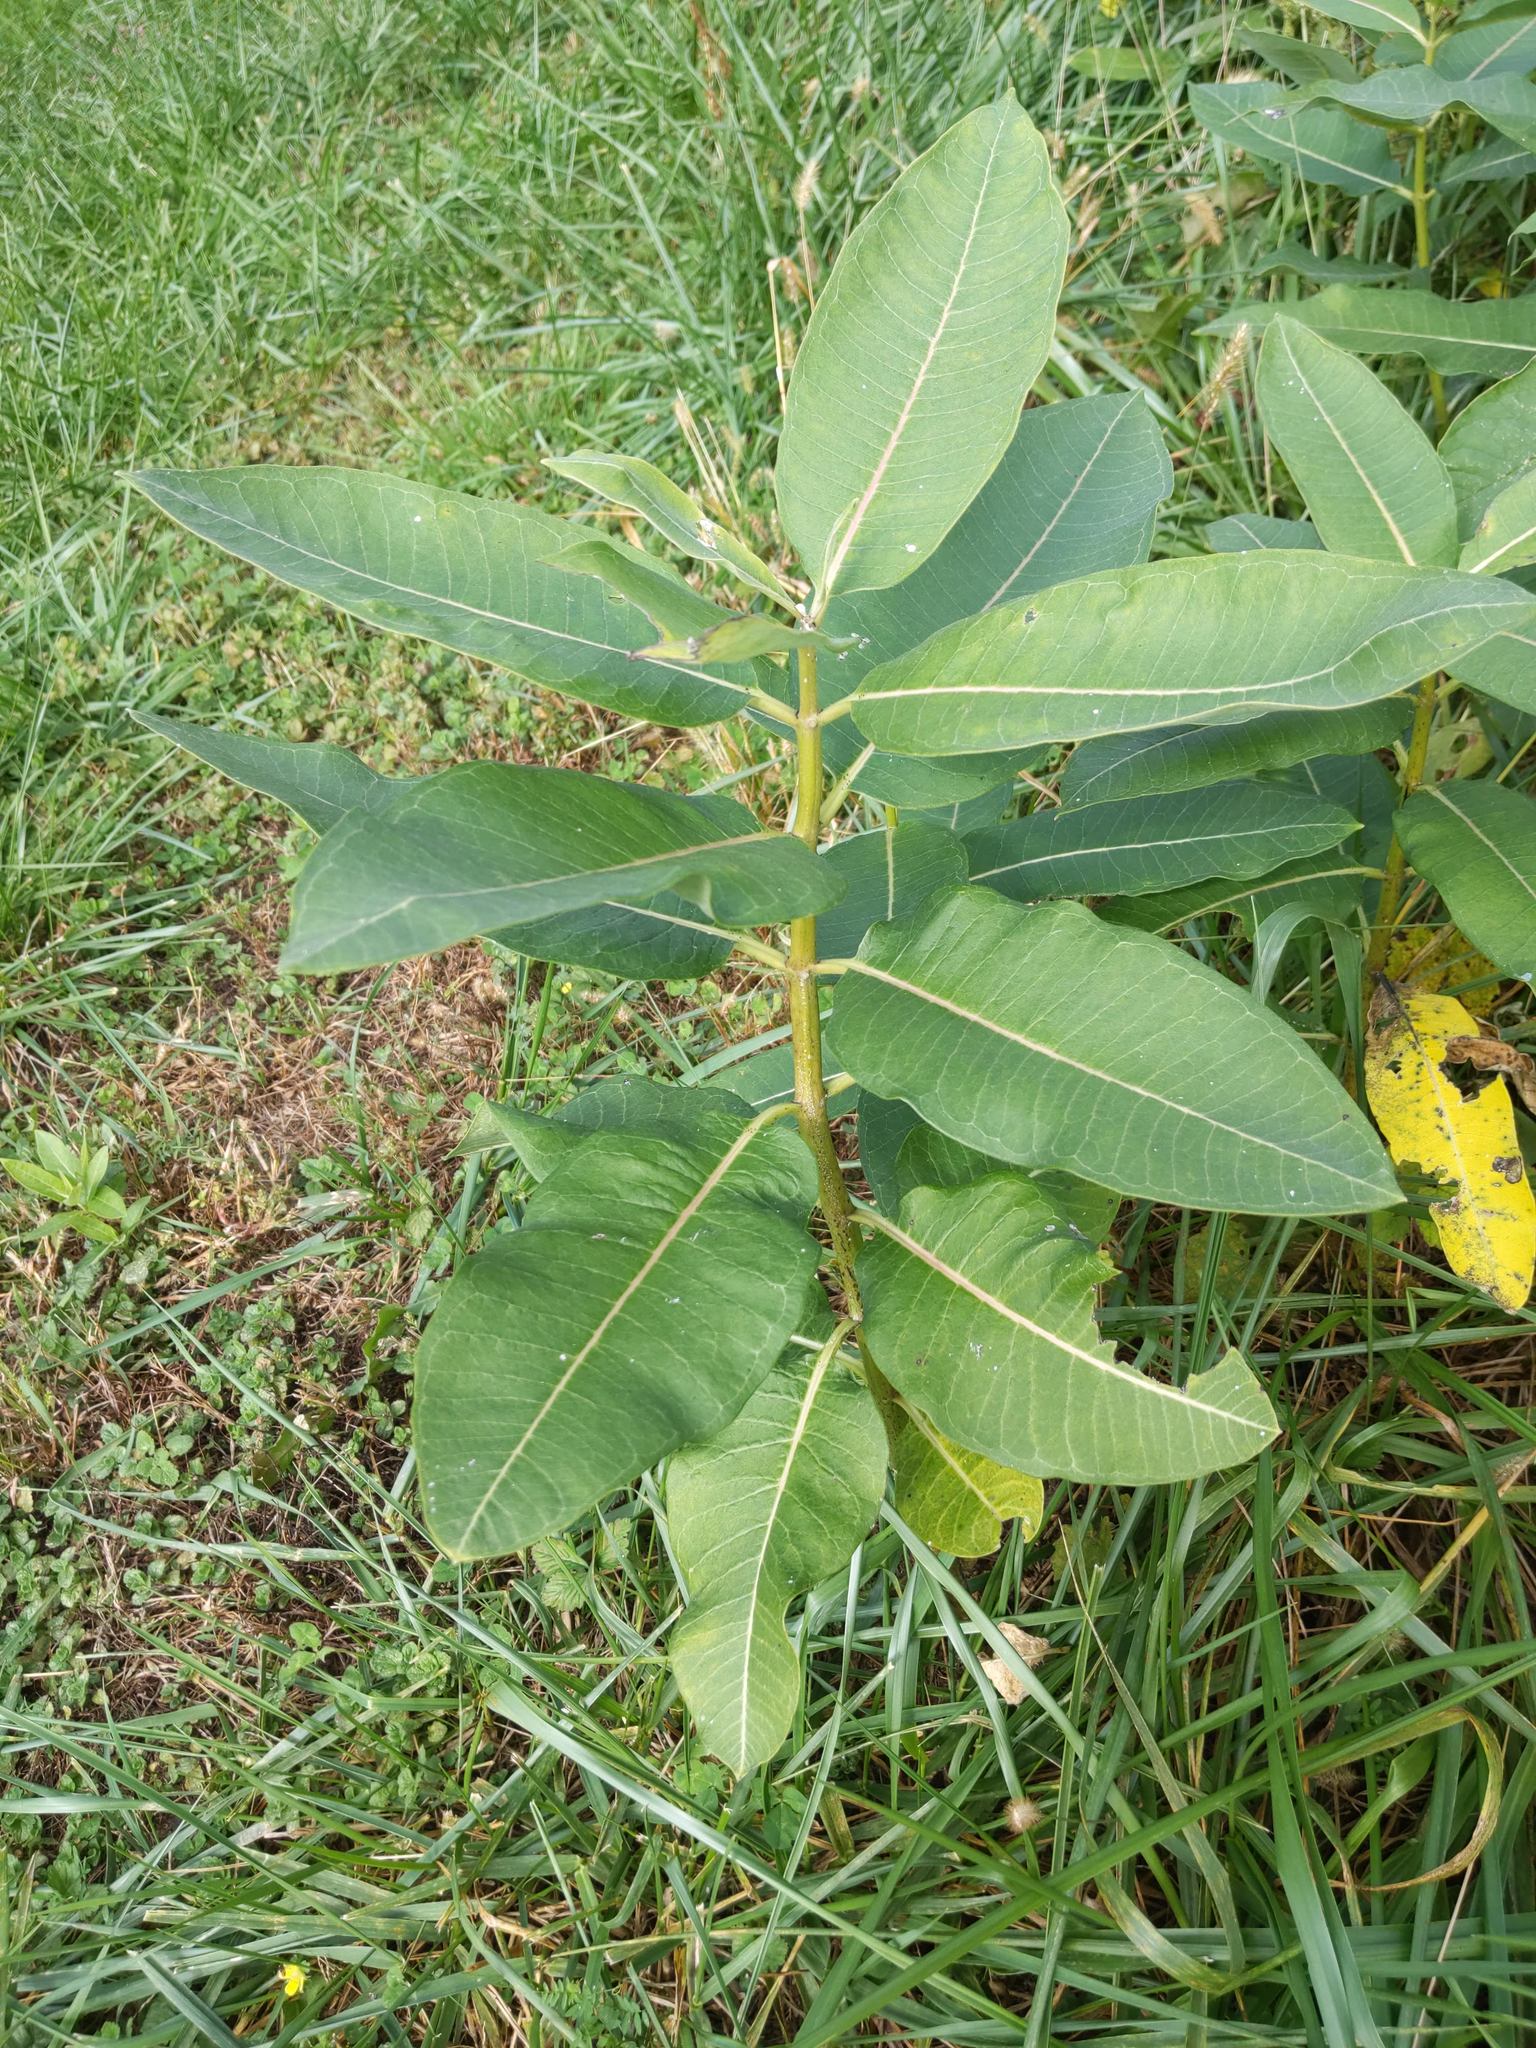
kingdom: Plantae
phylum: Tracheophyta
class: Magnoliopsida
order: Gentianales
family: Apocynaceae
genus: Asclepias
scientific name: Asclepias syriaca
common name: Common milkweed
